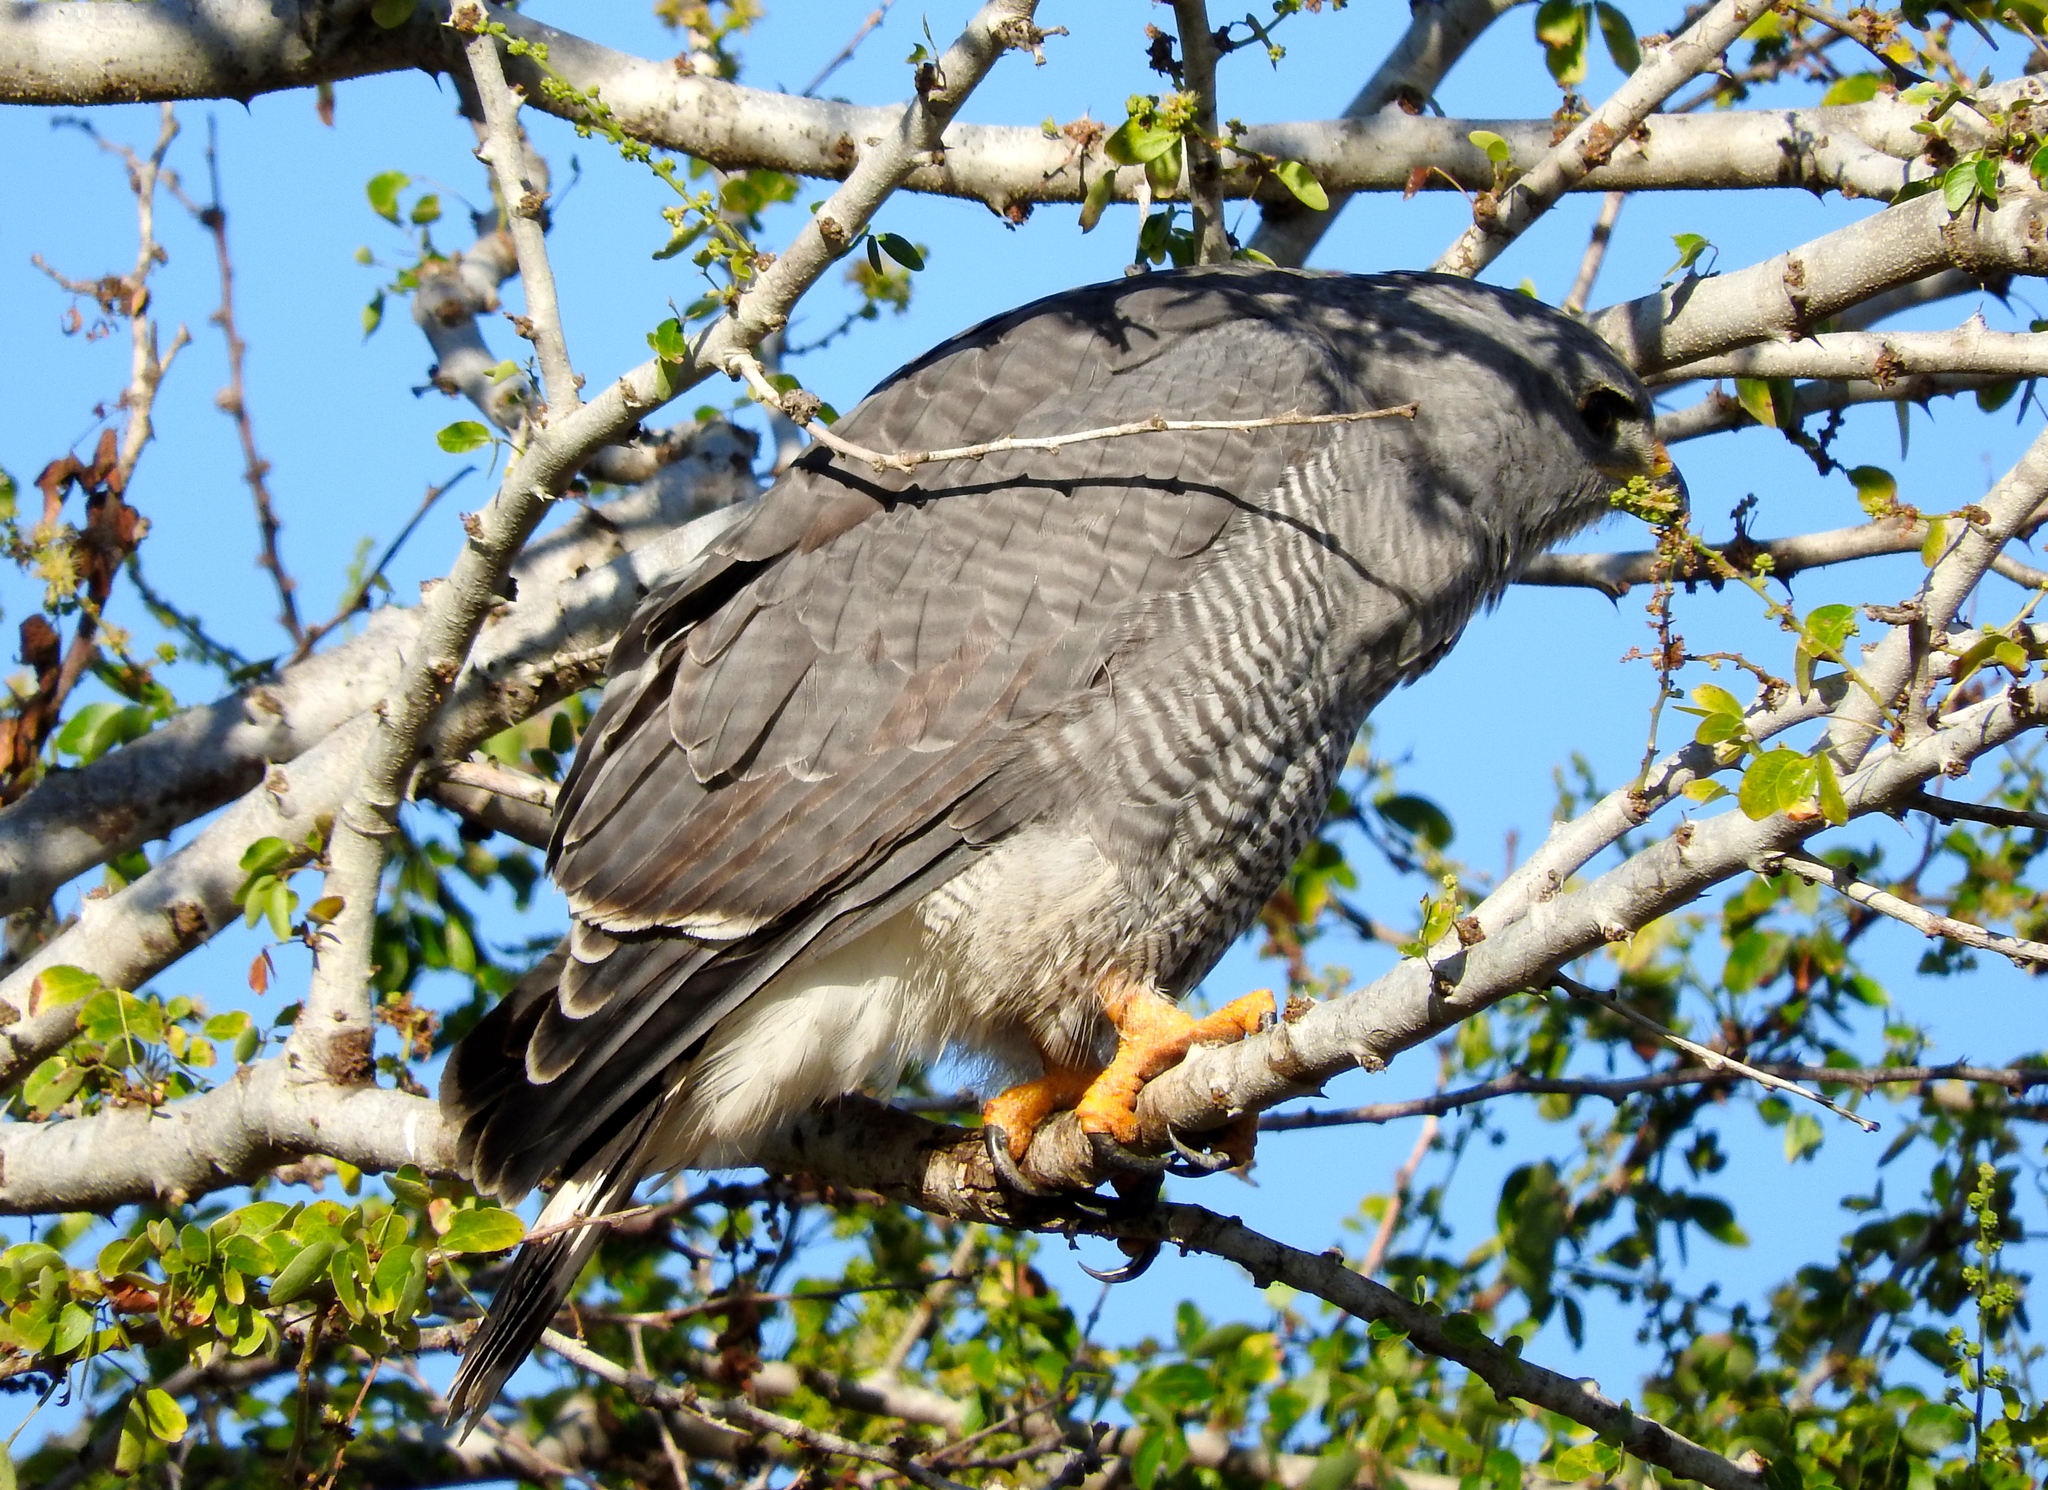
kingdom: Animalia
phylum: Chordata
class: Aves
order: Accipitriformes
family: Accipitridae
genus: Buteo
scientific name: Buteo nitidus
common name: Grey-lined hawk
